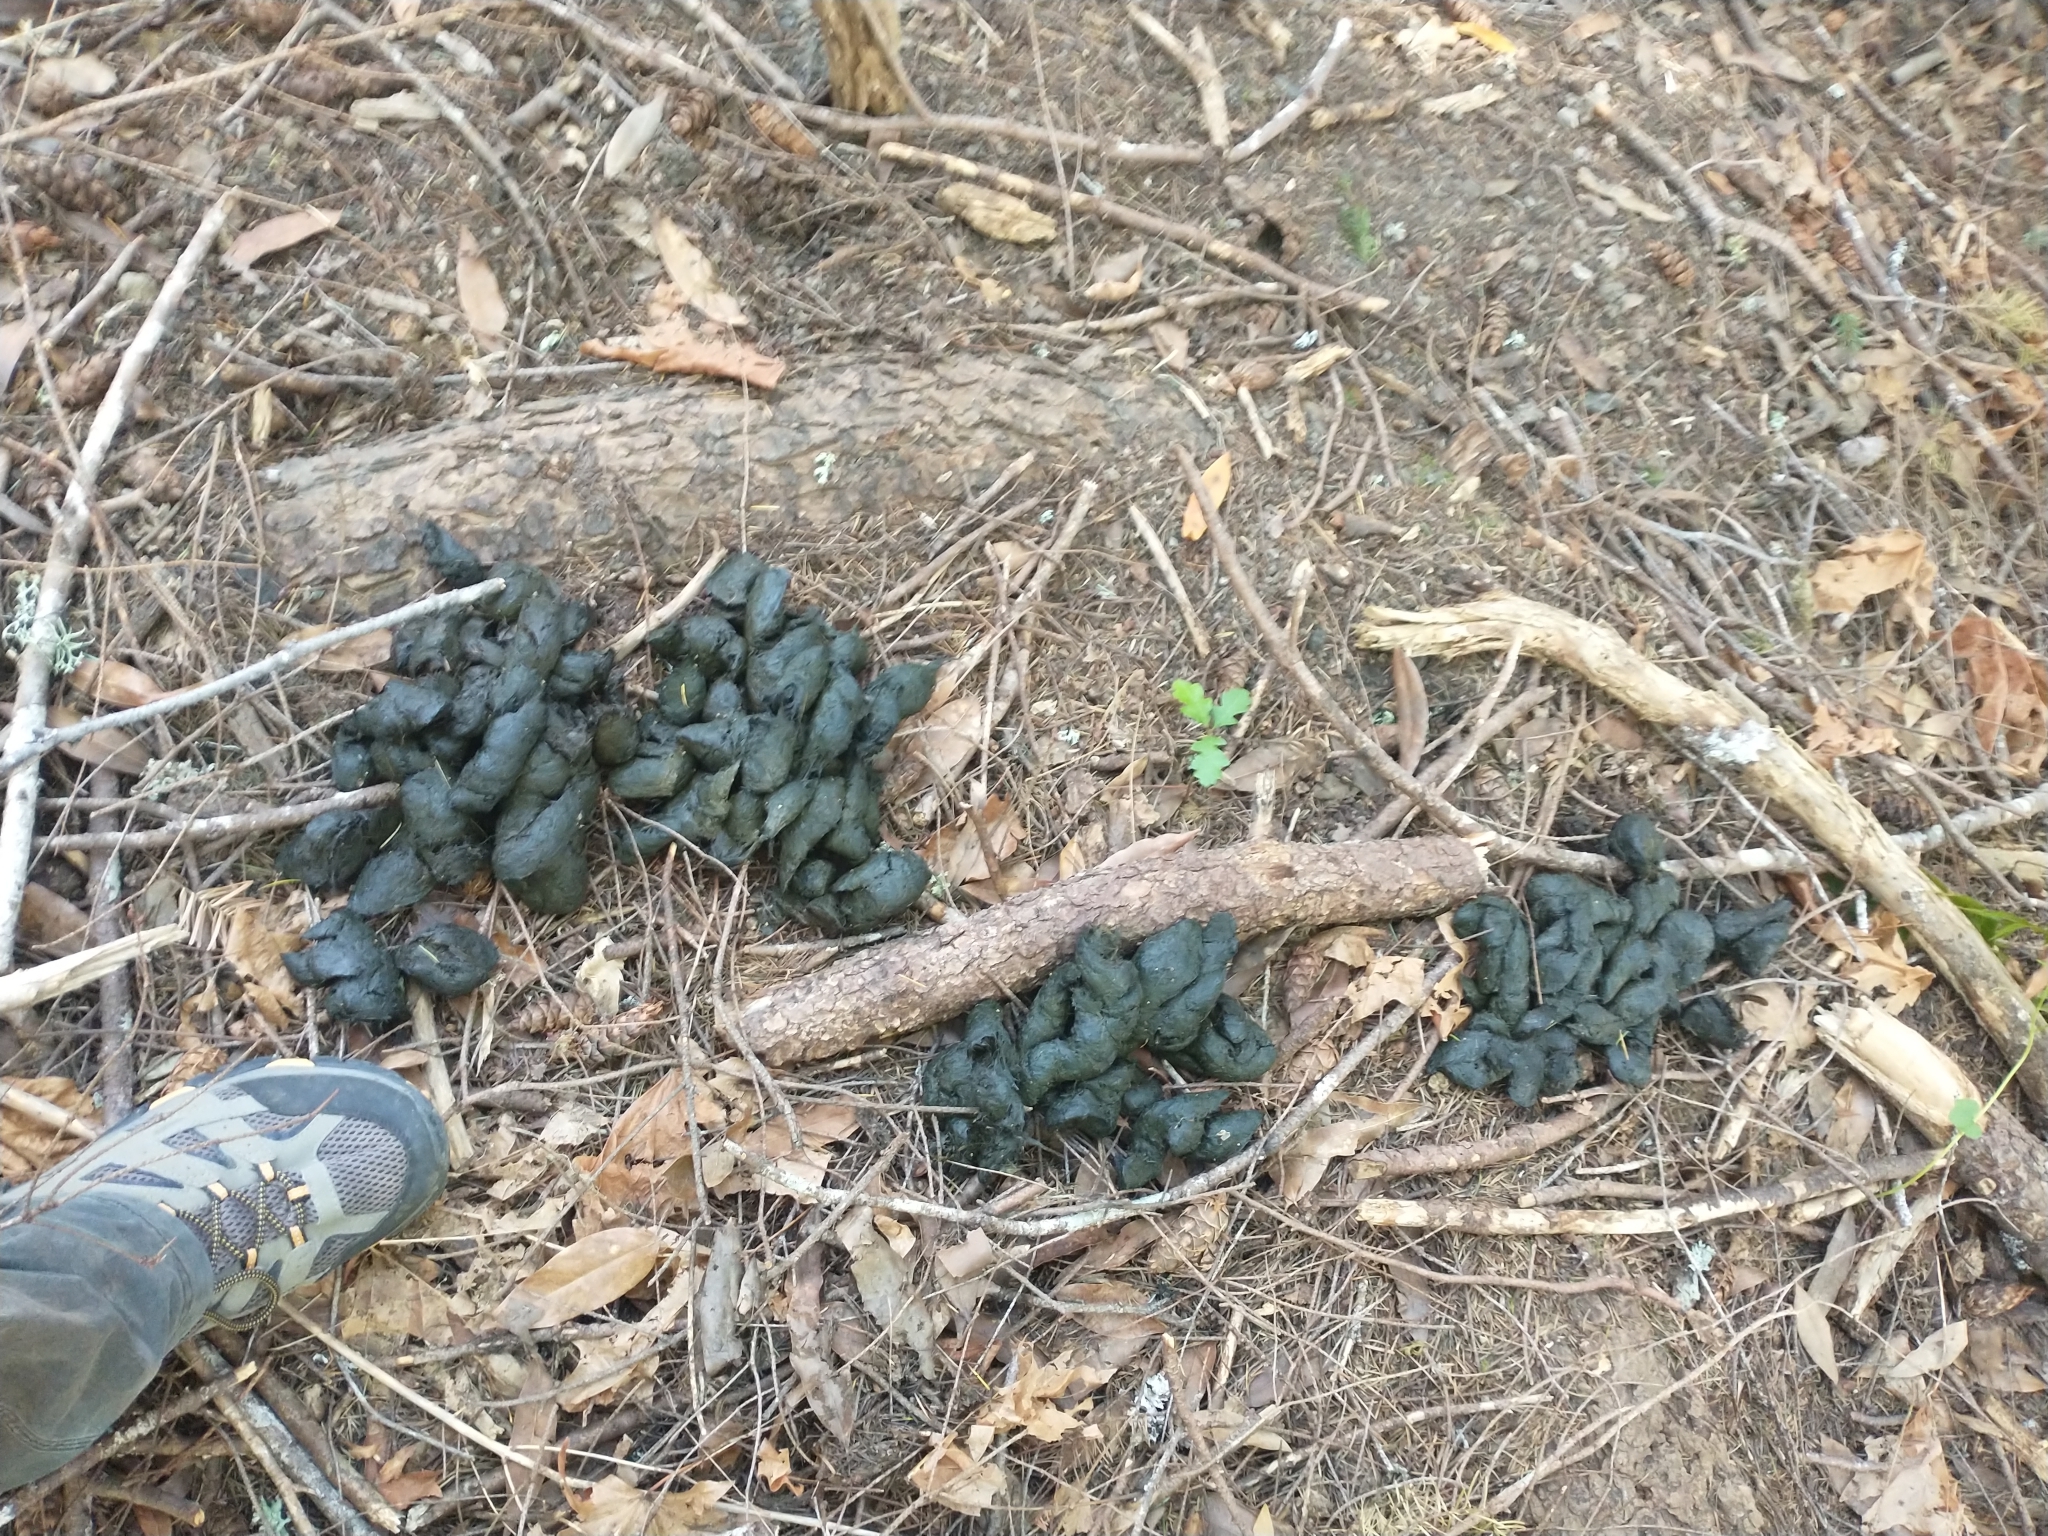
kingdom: Animalia
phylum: Chordata
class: Mammalia
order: Carnivora
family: Ursidae
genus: Ursus
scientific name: Ursus americanus
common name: American black bear
